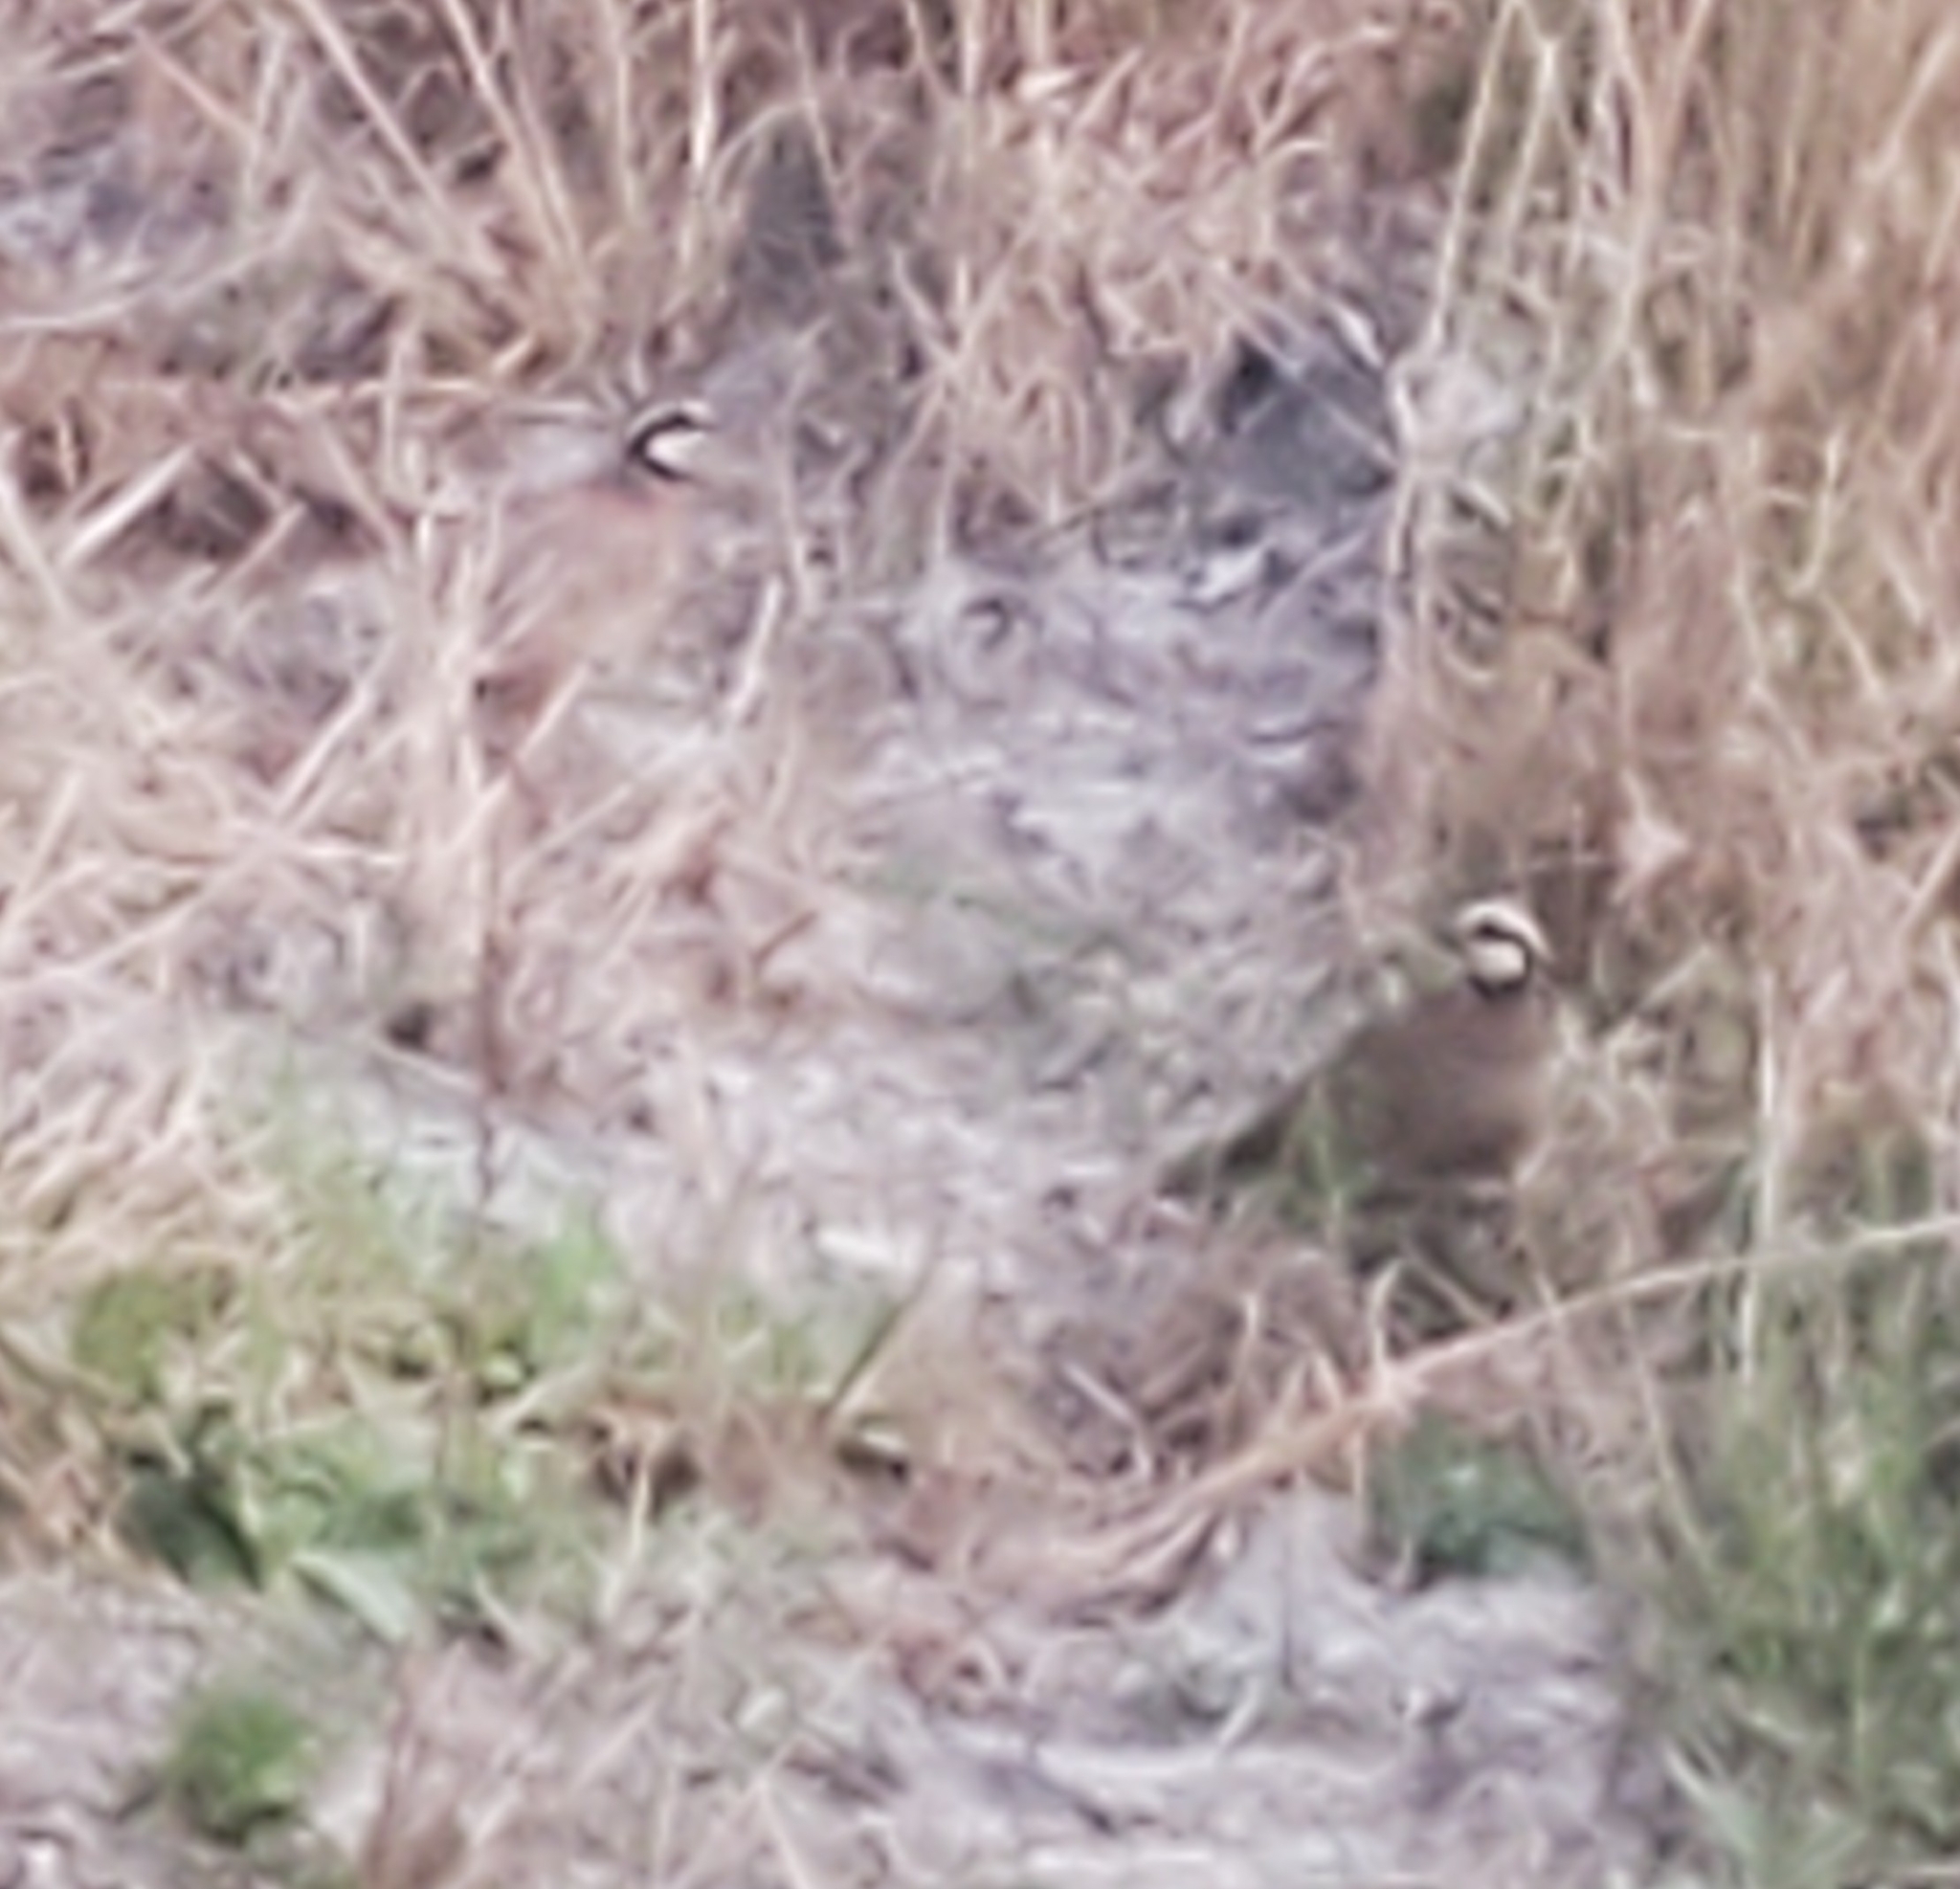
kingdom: Animalia
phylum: Chordata
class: Aves
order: Galliformes
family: Odontophoridae
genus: Colinus
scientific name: Colinus virginianus
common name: Northern bobwhite
